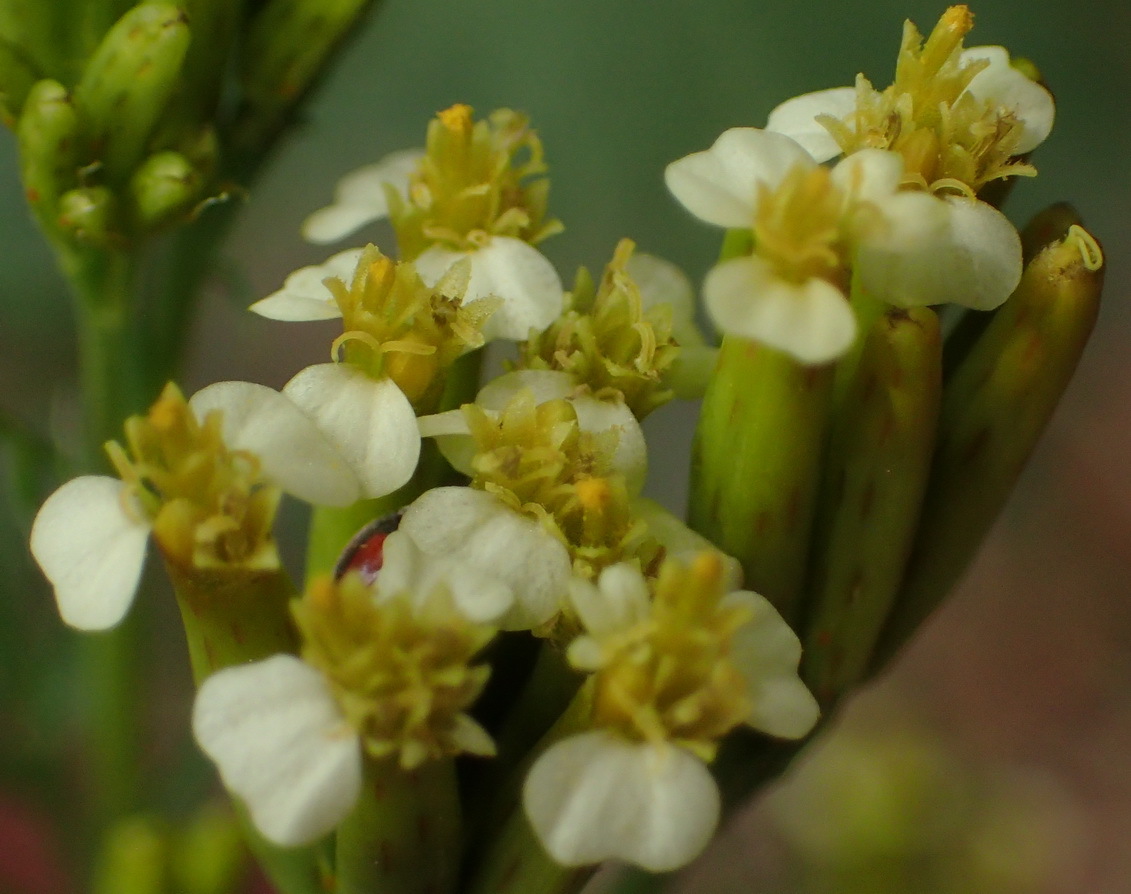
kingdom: Plantae
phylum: Tracheophyta
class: Magnoliopsida
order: Asterales
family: Asteraceae
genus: Tagetes
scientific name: Tagetes minuta
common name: Muster john henry
